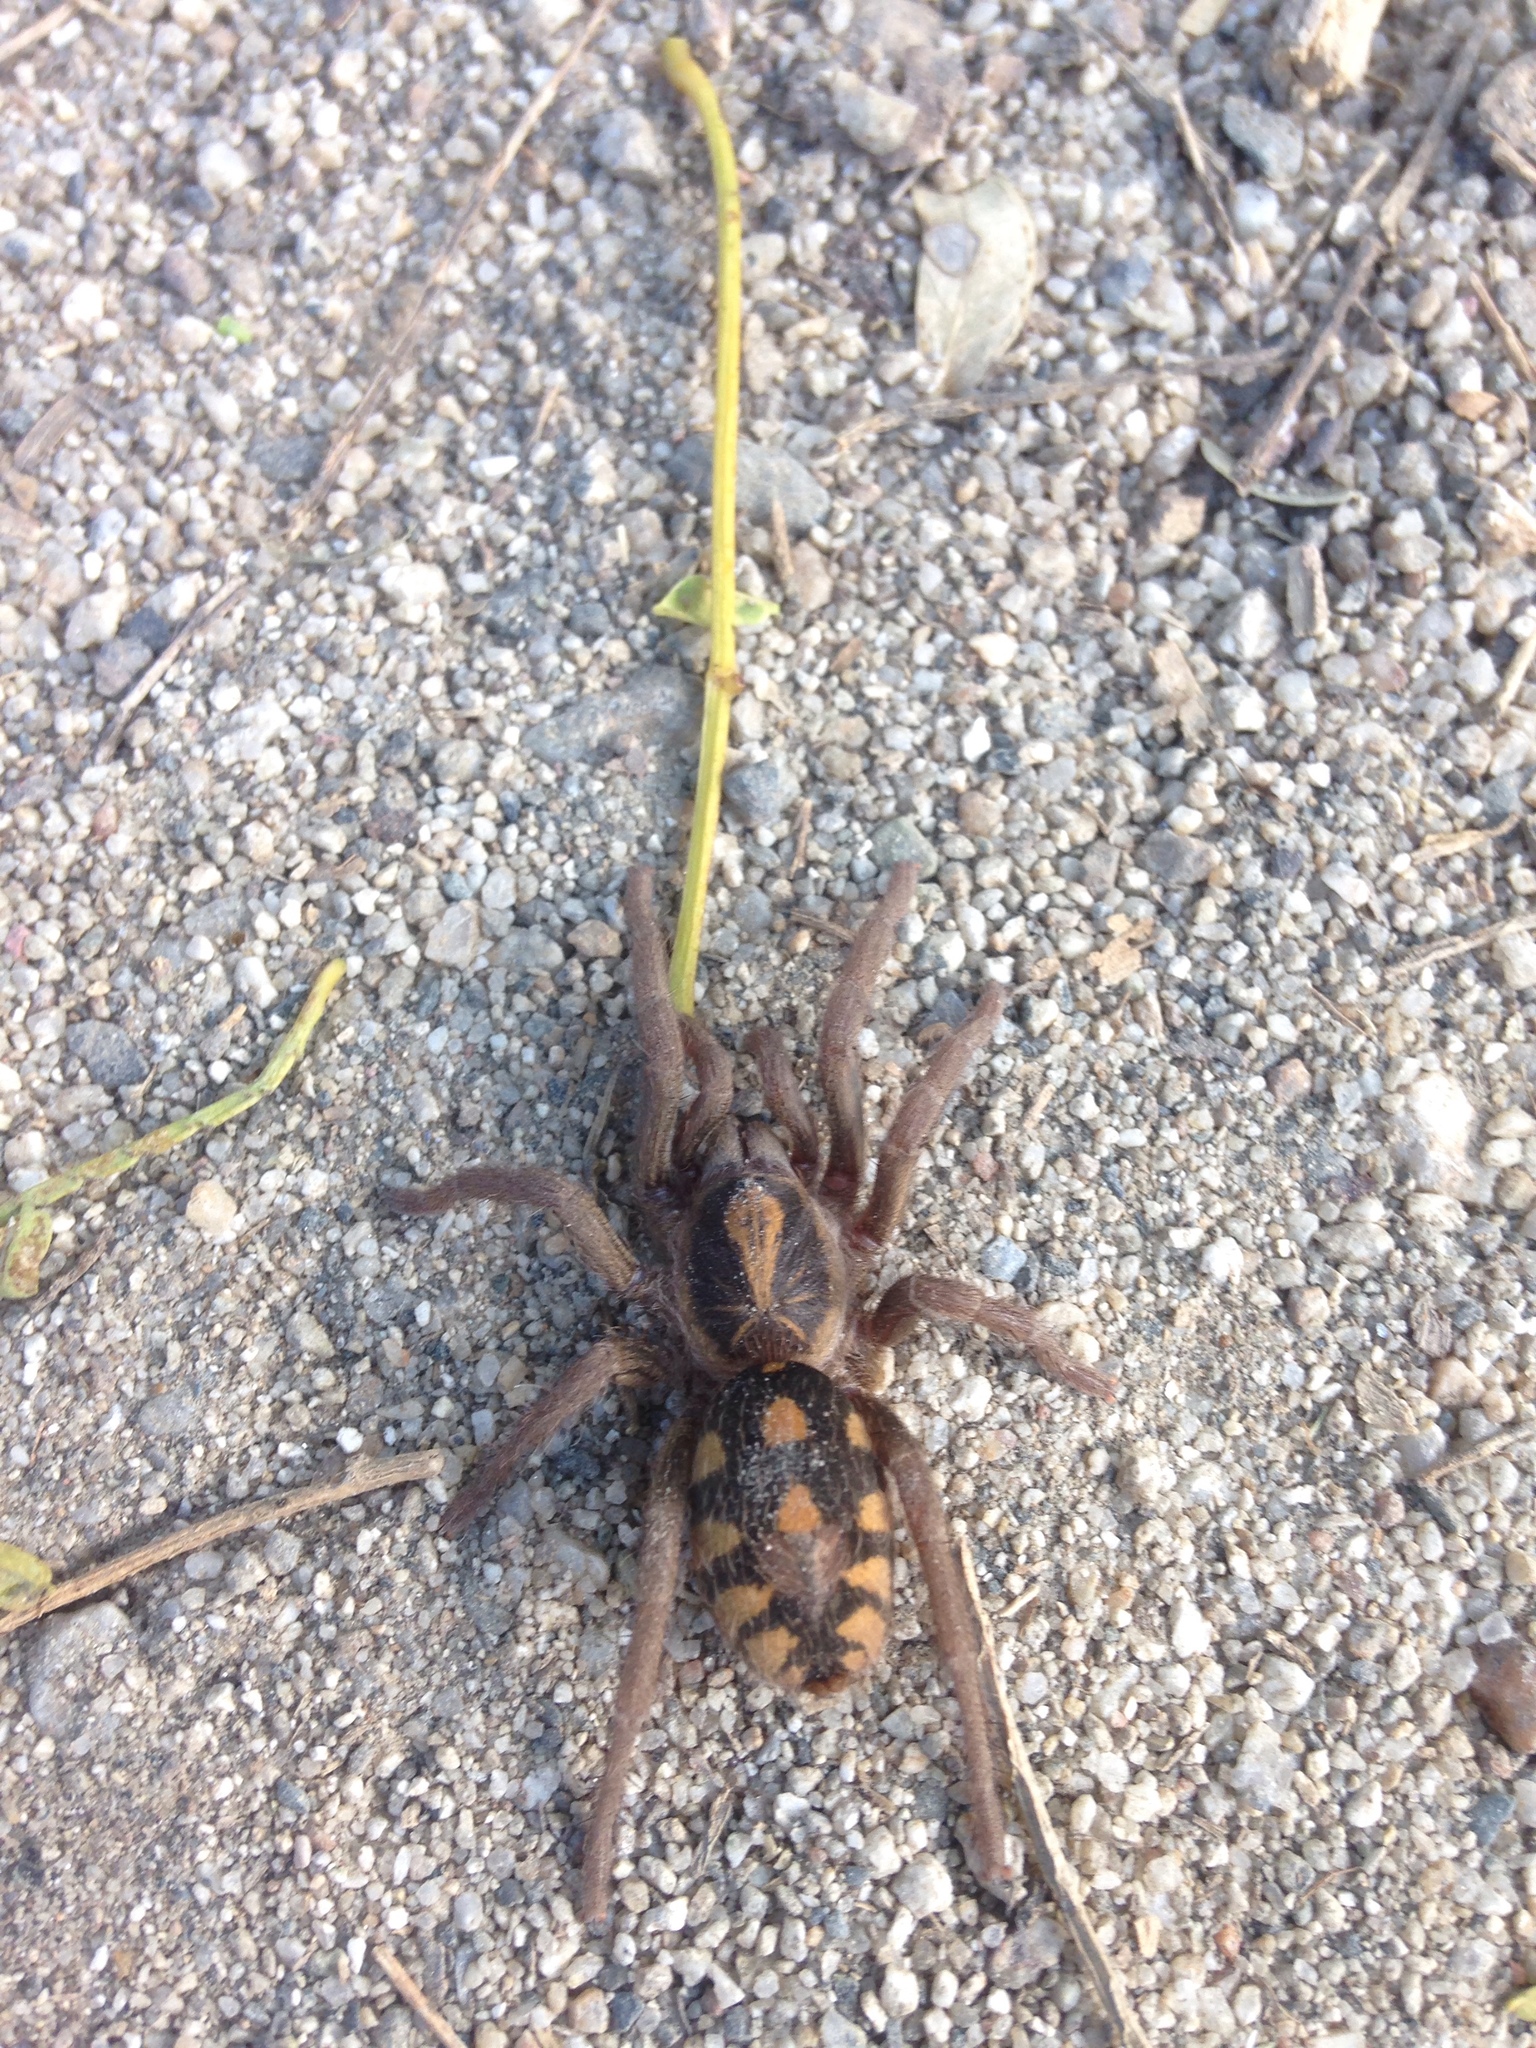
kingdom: Animalia
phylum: Arthropoda
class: Arachnida
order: Araneae
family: Theraphosidae
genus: Hapalopus
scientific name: Hapalopus formosus
